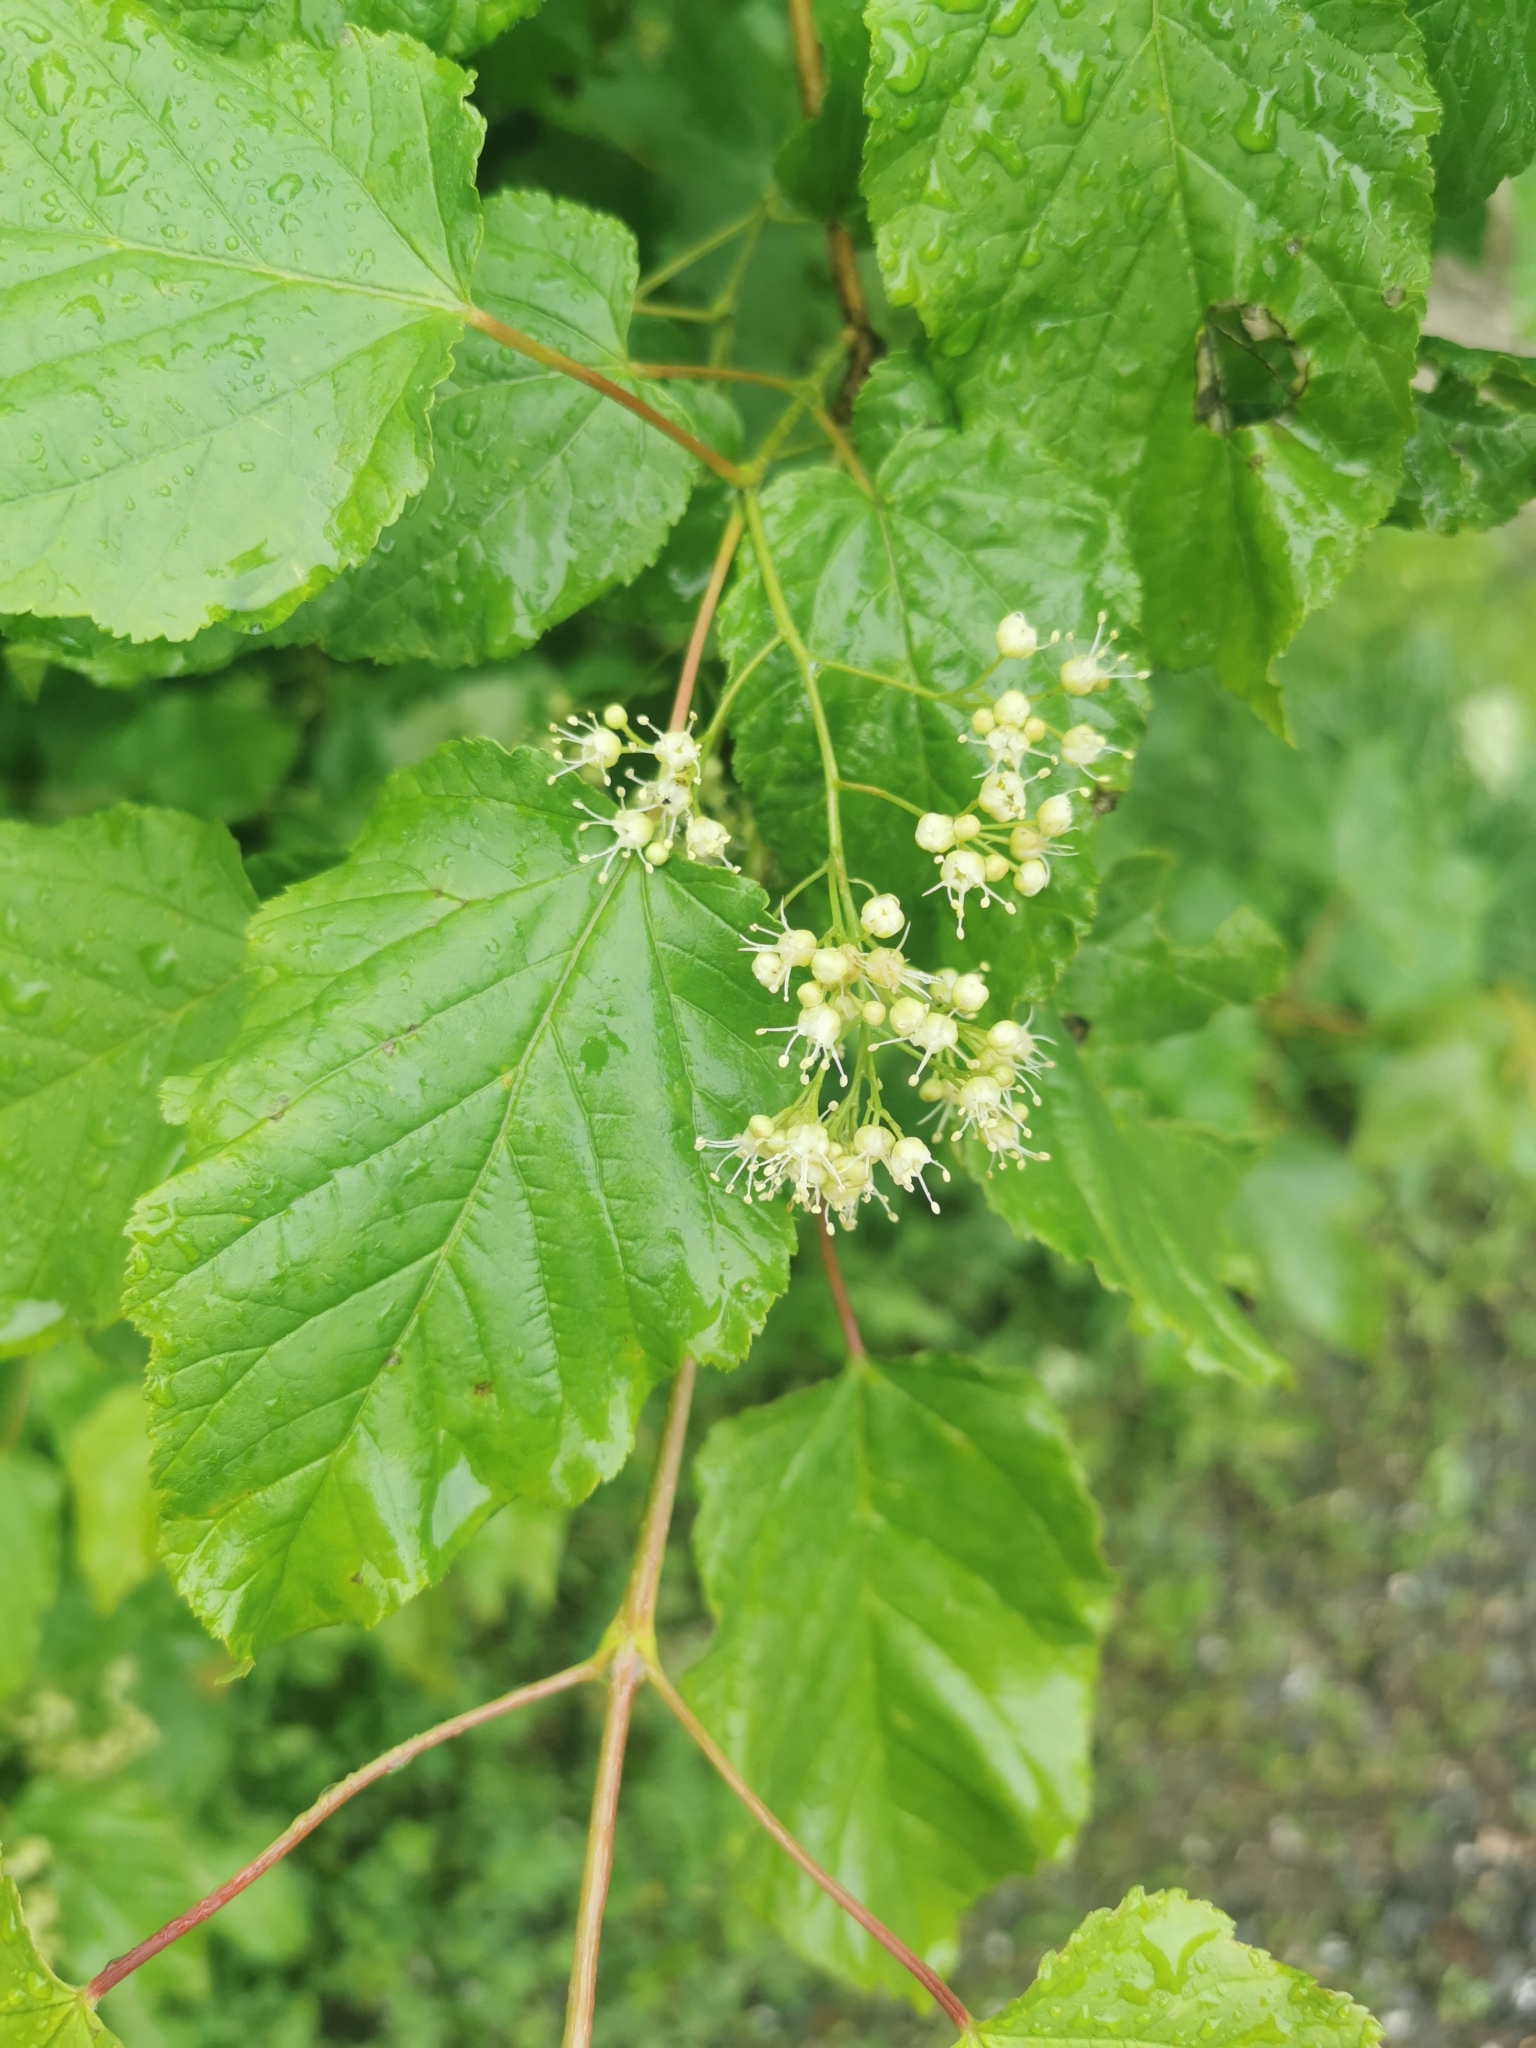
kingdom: Plantae
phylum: Tracheophyta
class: Magnoliopsida
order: Sapindales
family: Sapindaceae
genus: Acer
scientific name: Acer tataricum
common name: Tartar maple
